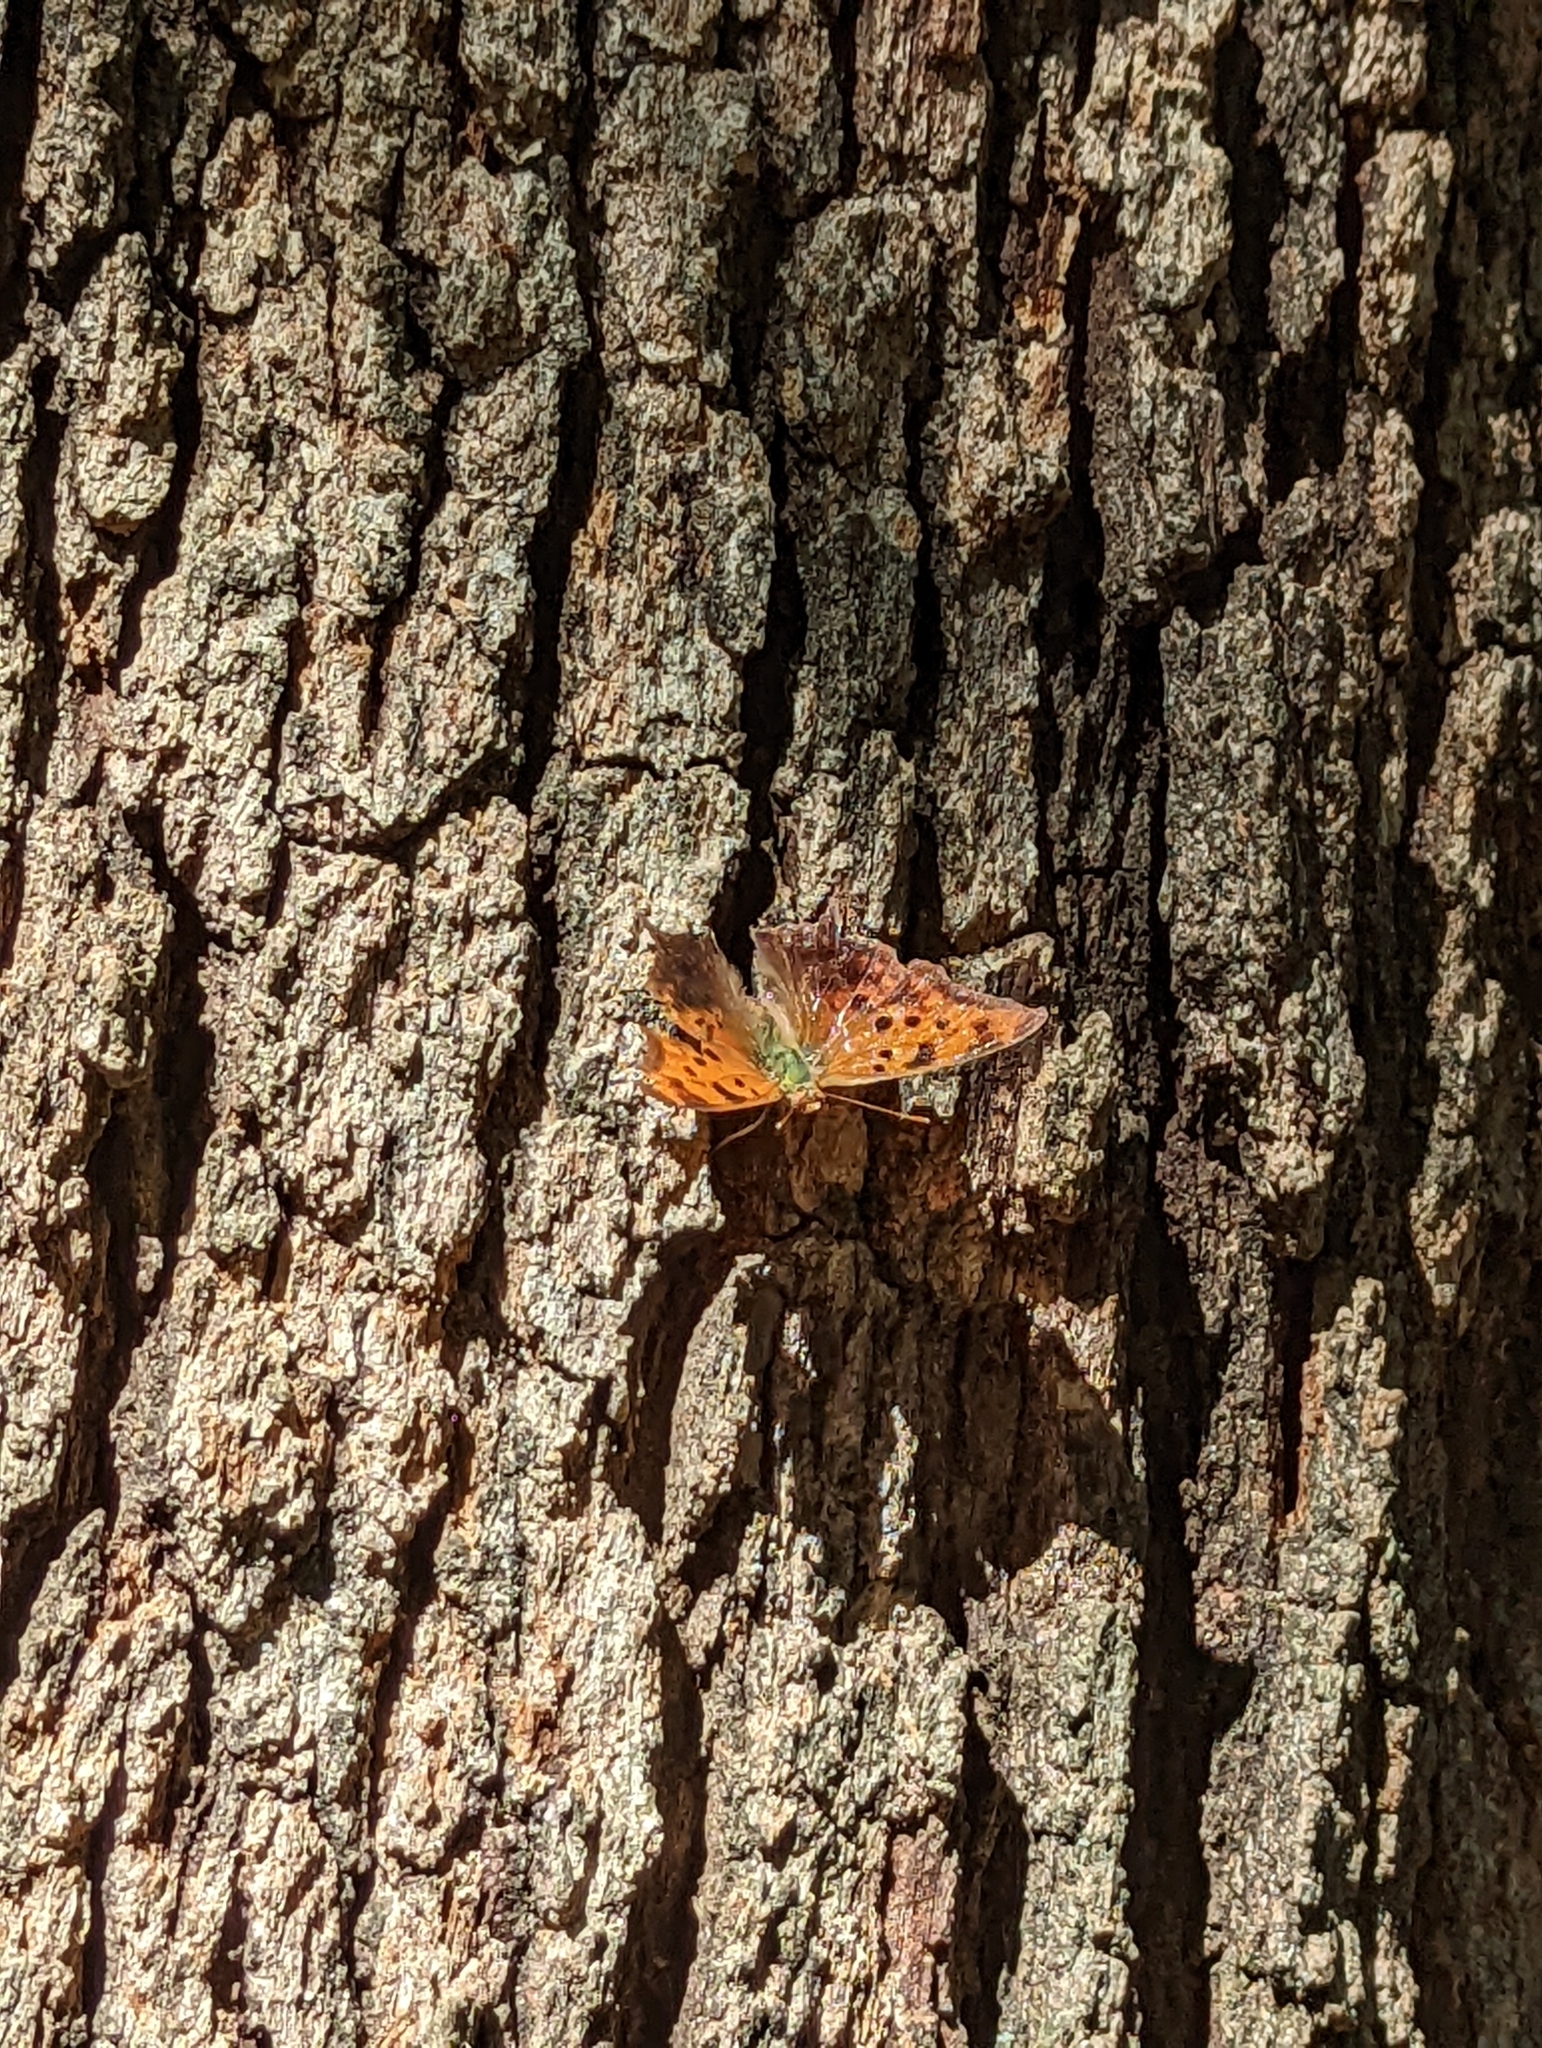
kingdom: Animalia
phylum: Arthropoda
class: Insecta
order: Lepidoptera
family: Nymphalidae
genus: Polygonia
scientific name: Polygonia interrogationis
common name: Question mark
